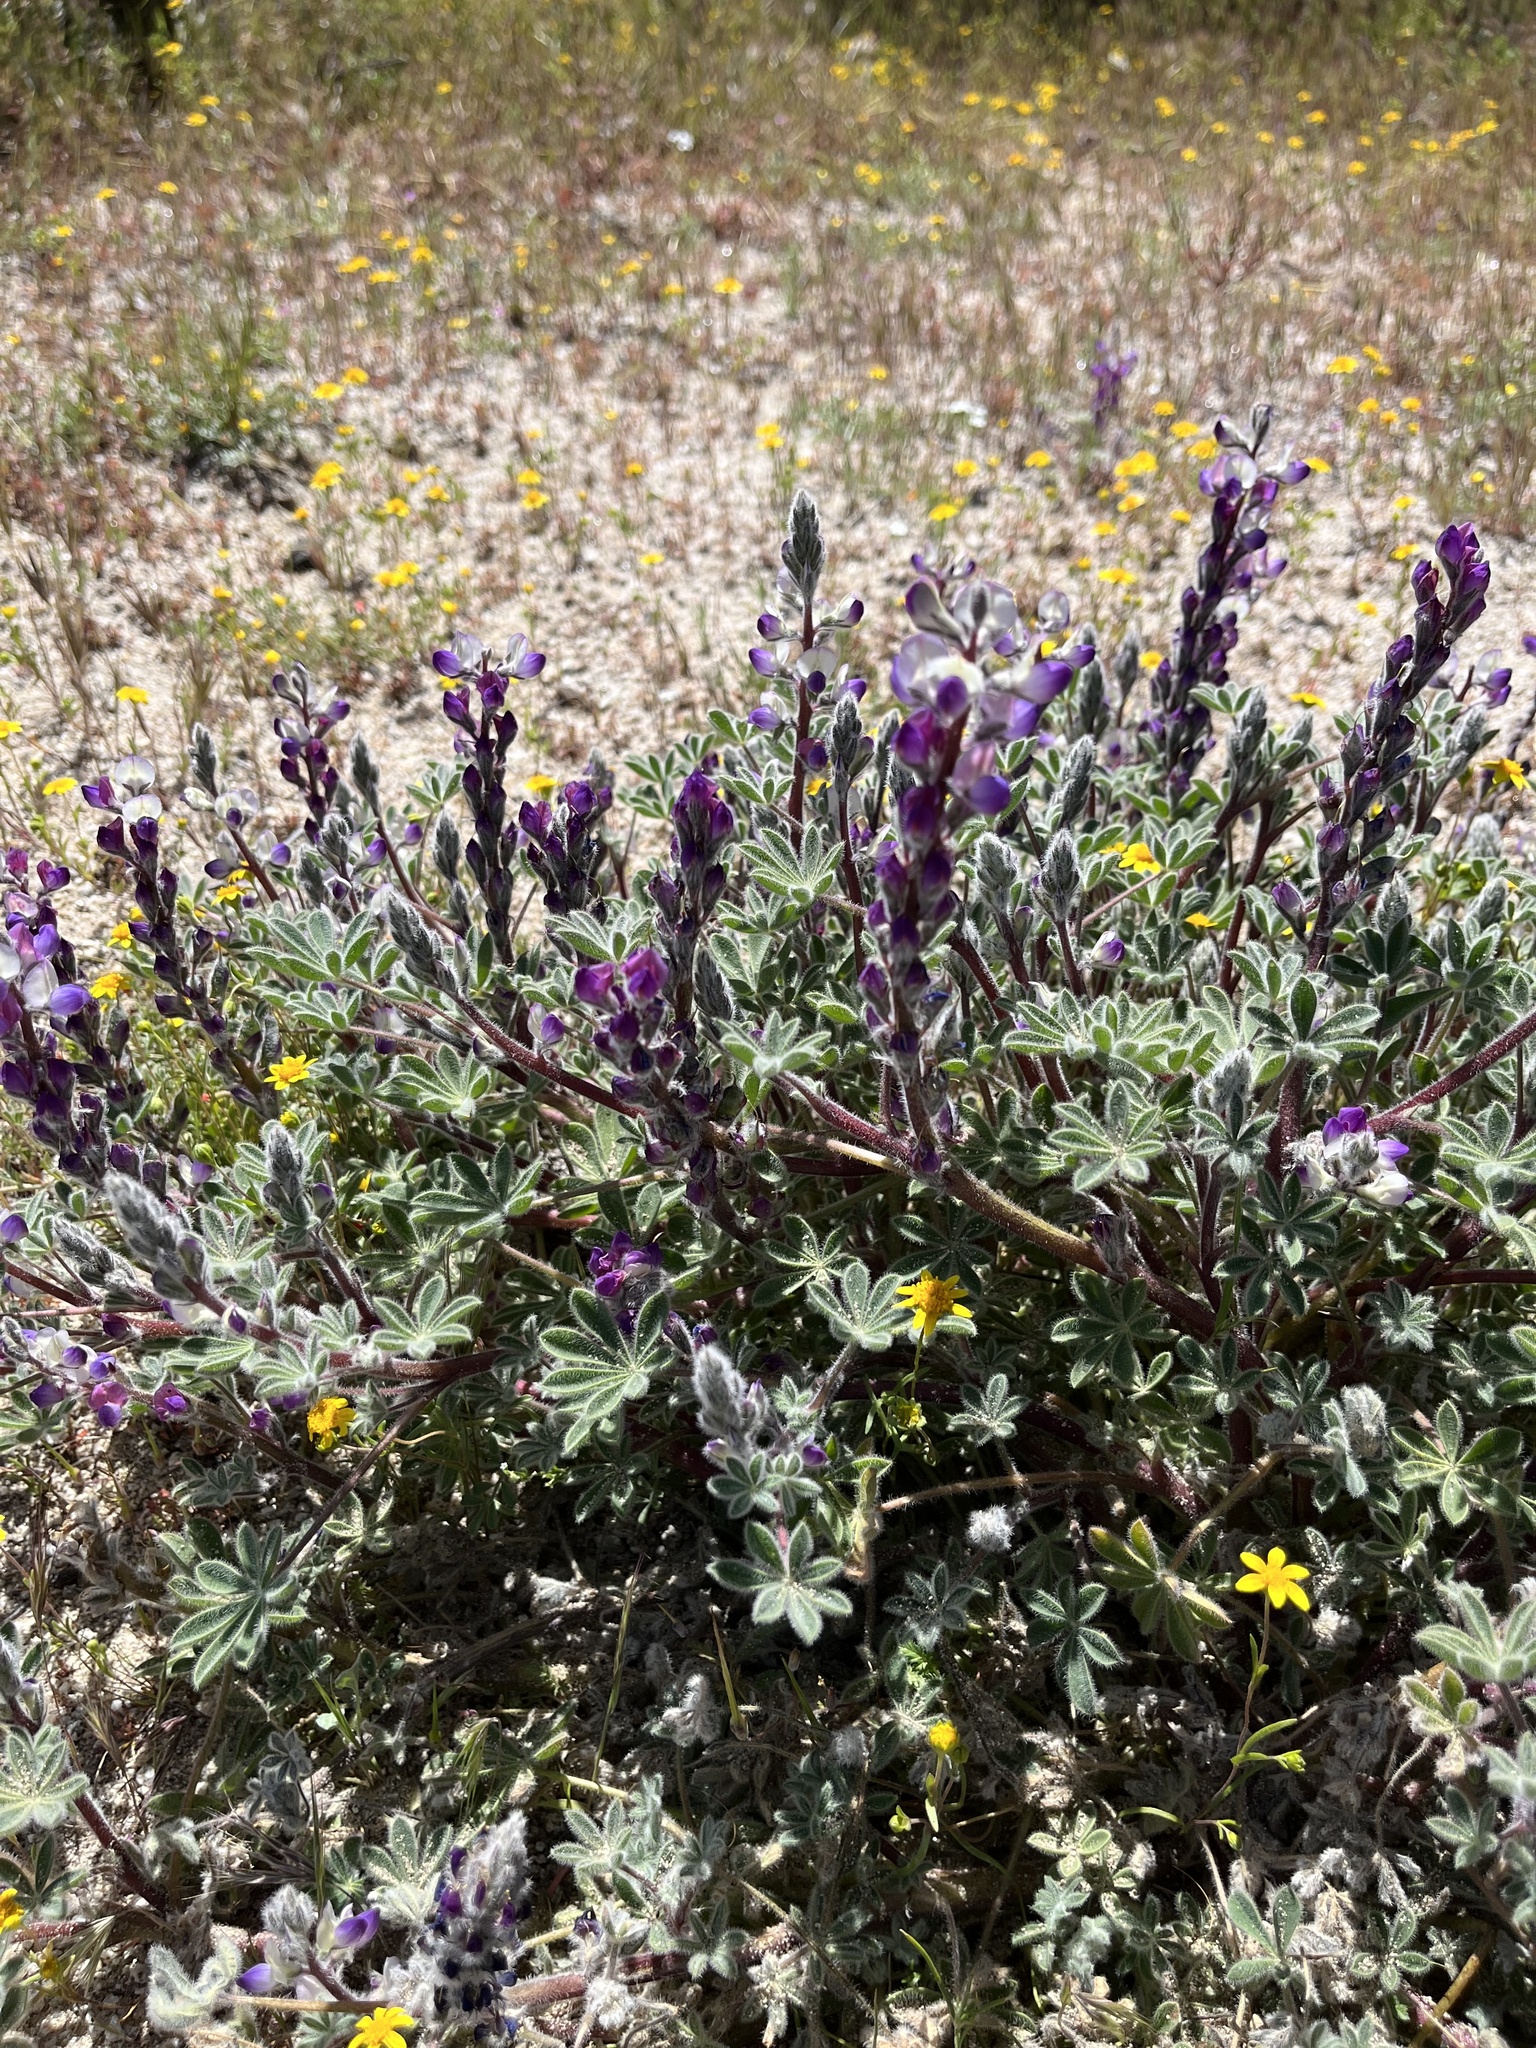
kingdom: Plantae
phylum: Tracheophyta
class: Magnoliopsida
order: Fabales
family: Fabaceae
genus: Lupinus
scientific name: Lupinus concinnus
